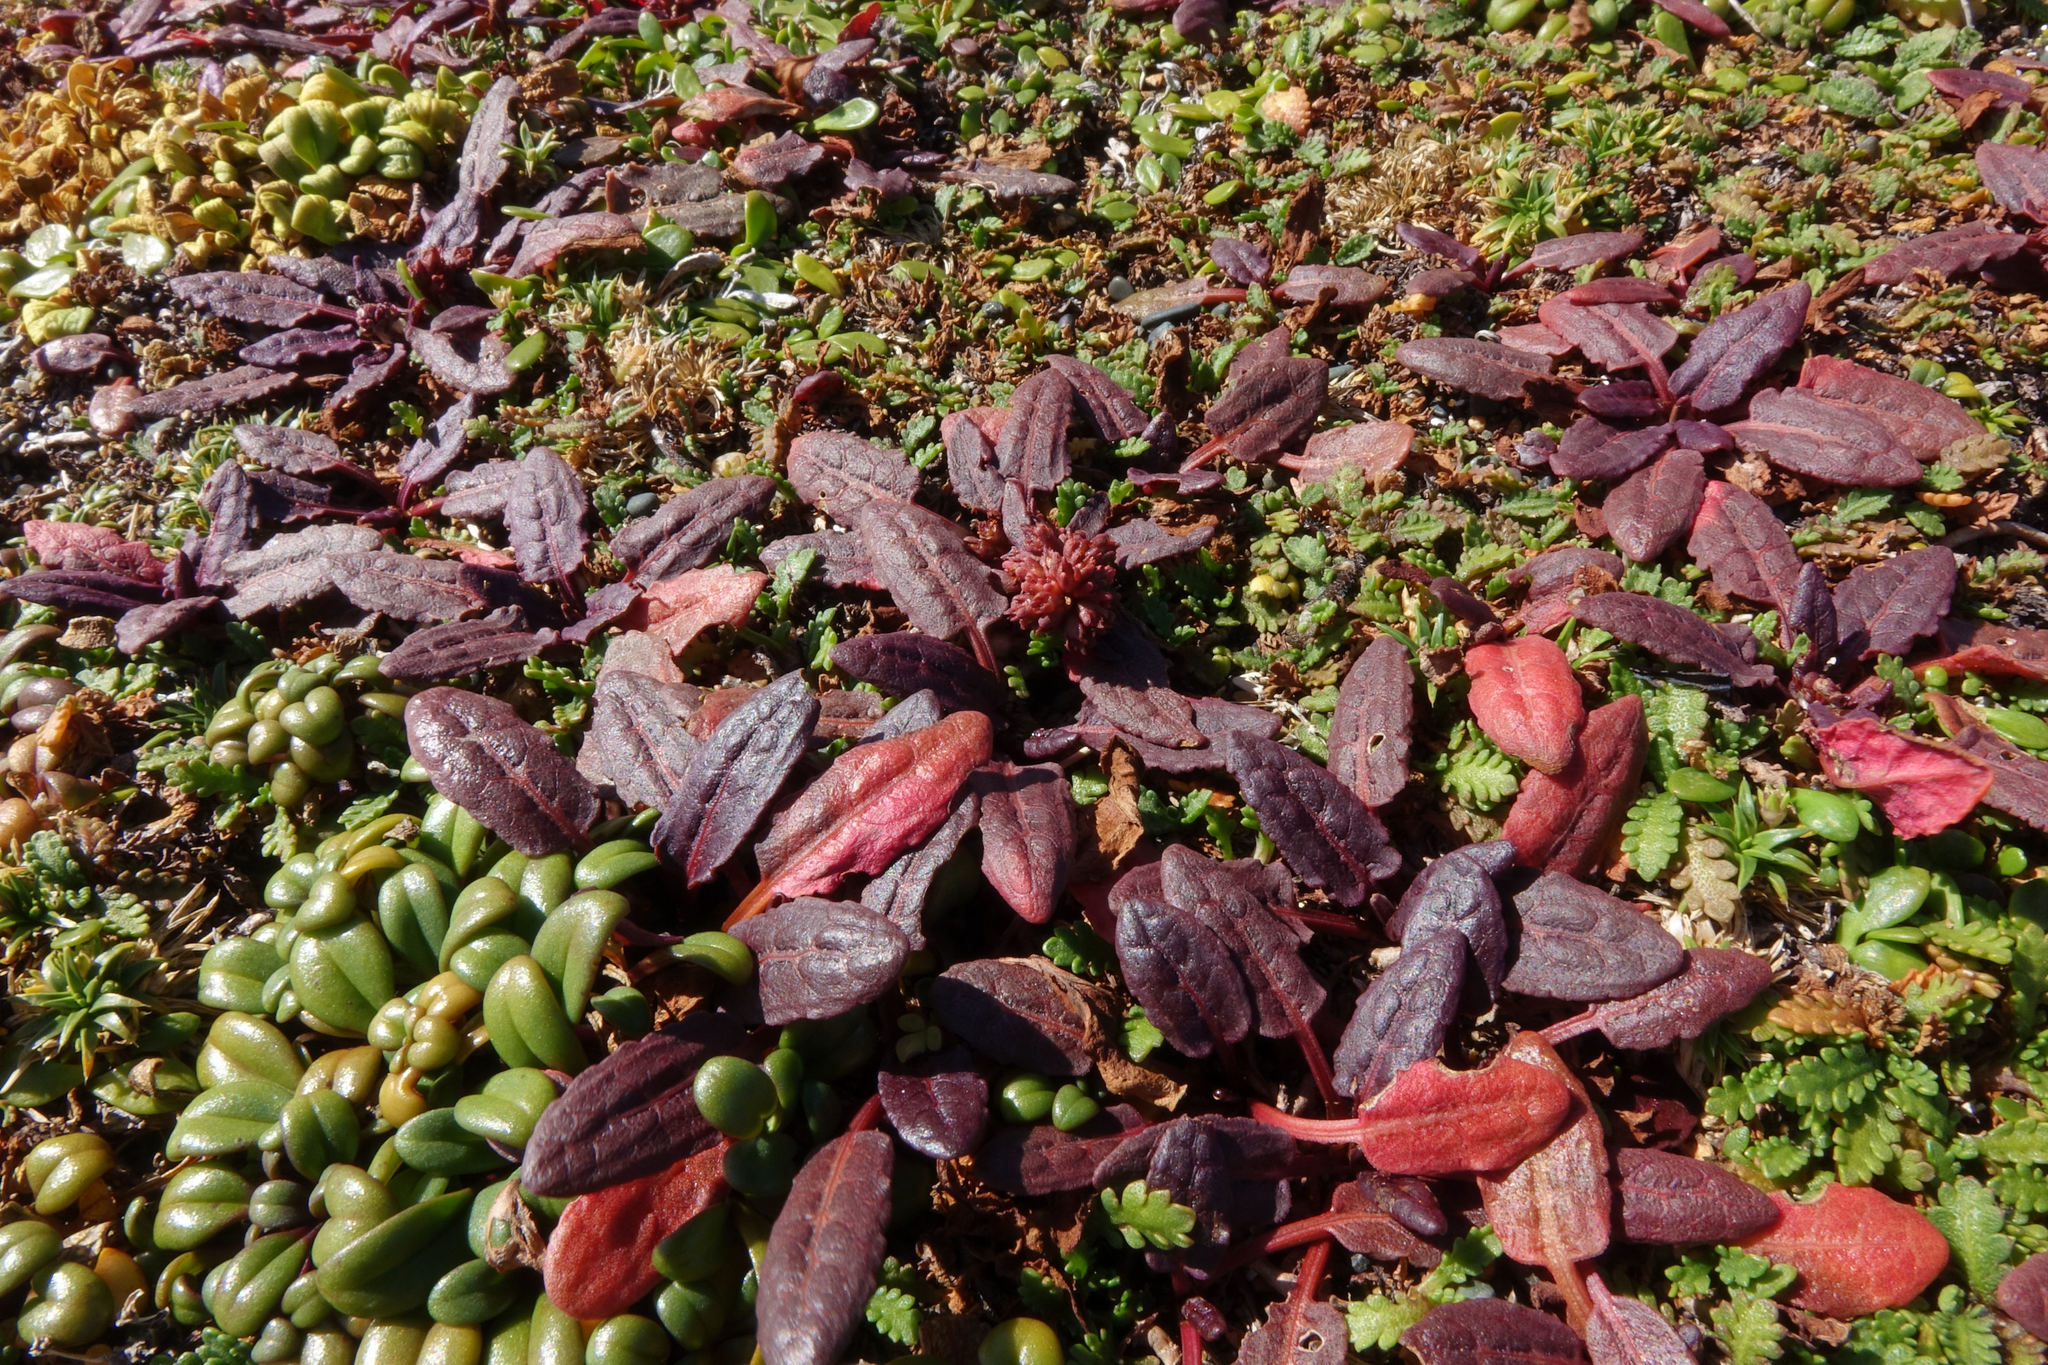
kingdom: Plantae
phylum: Tracheophyta
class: Magnoliopsida
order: Caryophyllales
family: Polygonaceae
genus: Rumex
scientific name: Rumex neglectus
